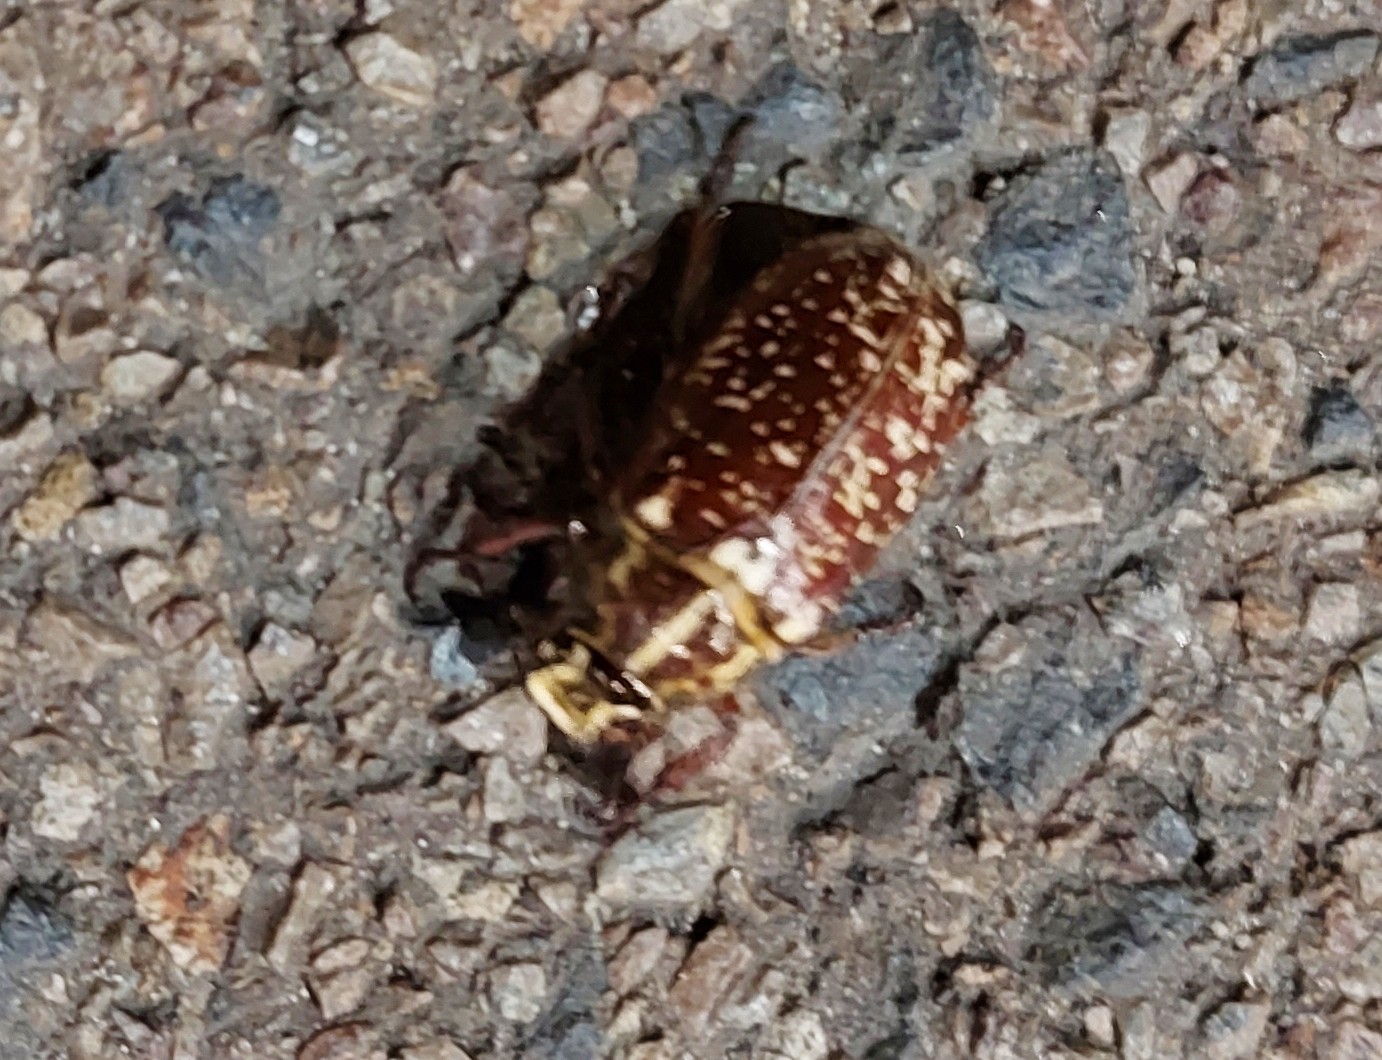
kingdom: Animalia
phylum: Arthropoda
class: Insecta
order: Coleoptera
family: Scarabaeidae
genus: Polyphylla
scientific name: Polyphylla fullo
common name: Pine chafer
